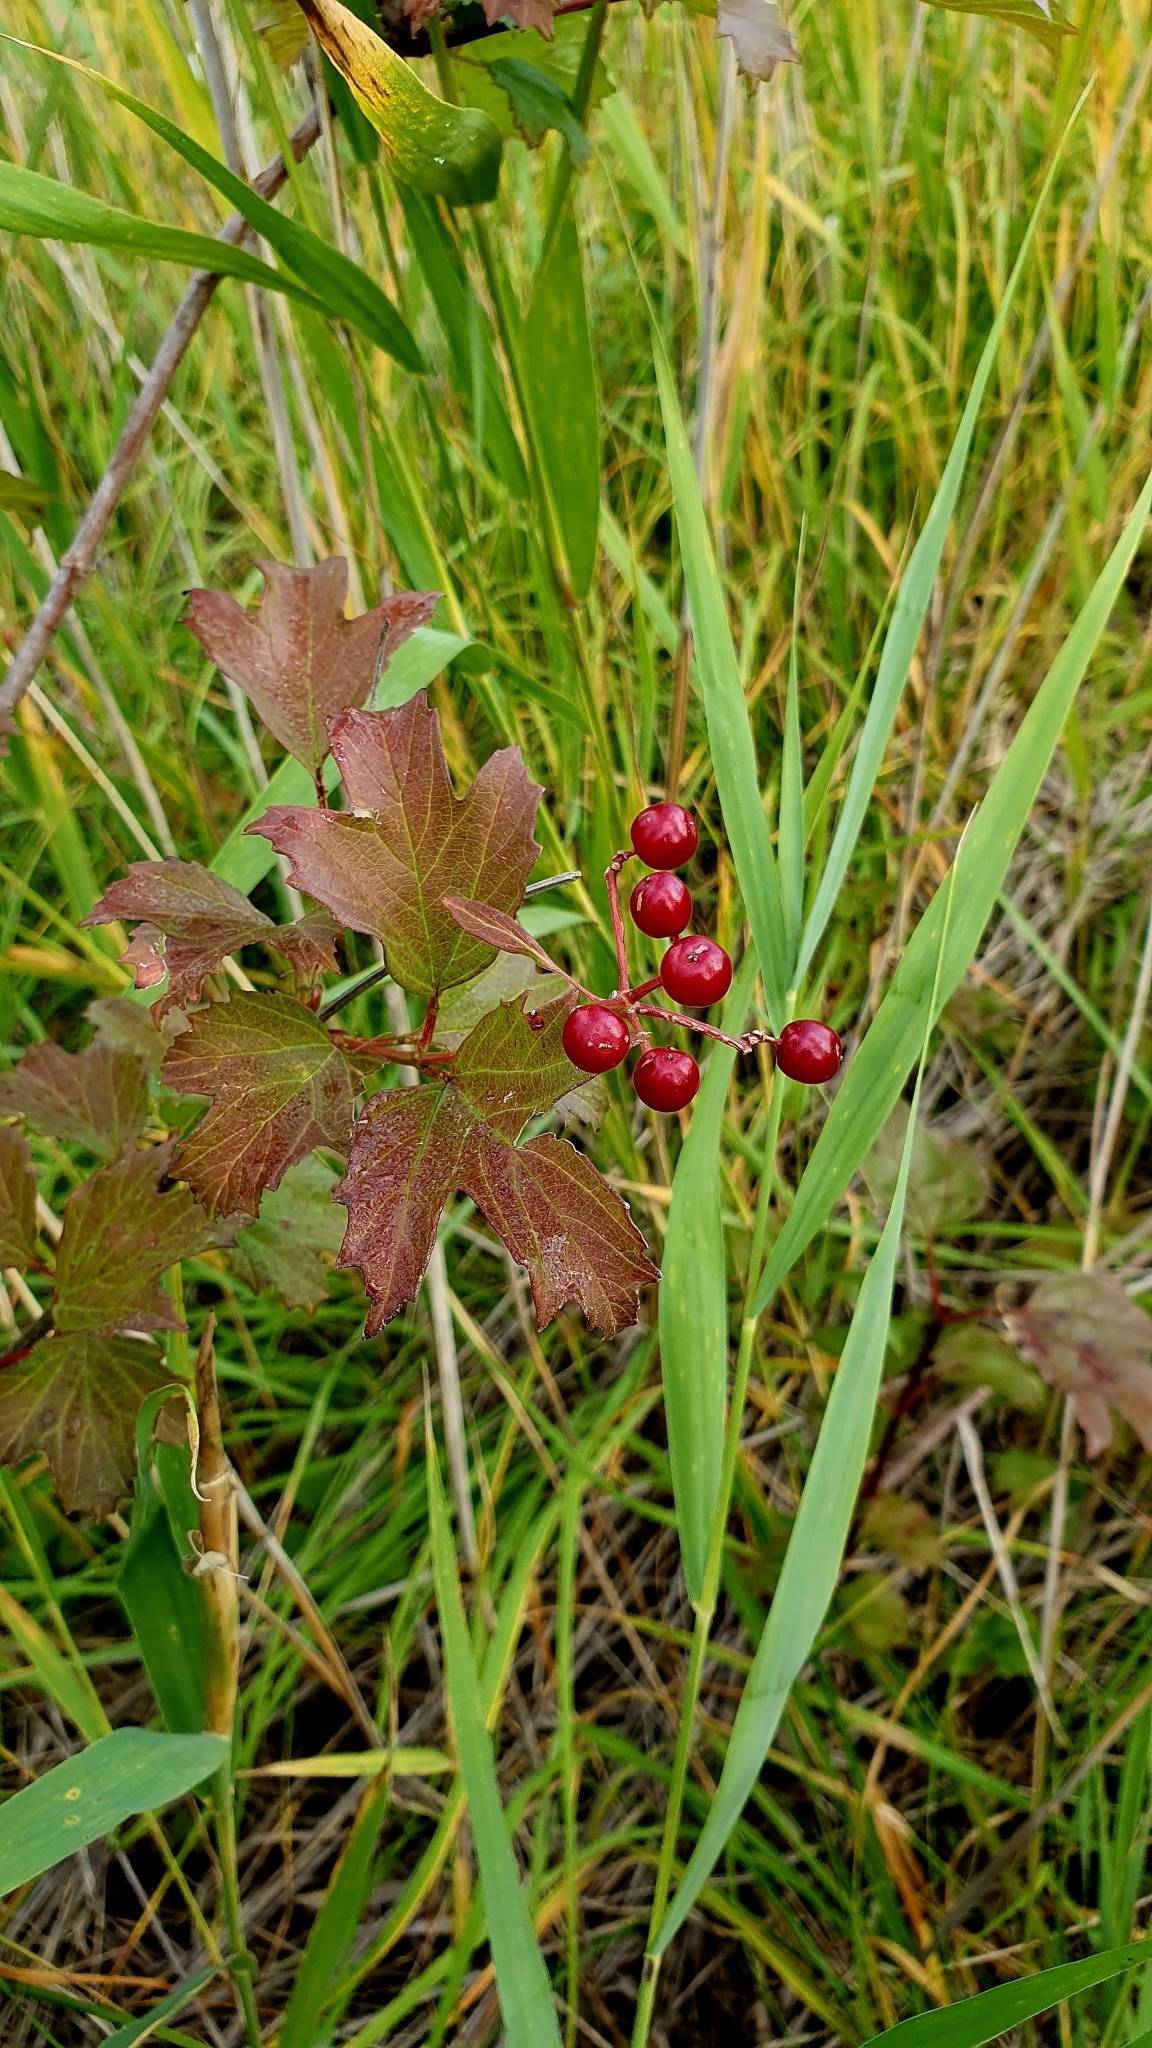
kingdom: Plantae
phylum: Tracheophyta
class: Magnoliopsida
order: Dipsacales
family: Viburnaceae
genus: Viburnum
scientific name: Viburnum opulus
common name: Guelder-rose
